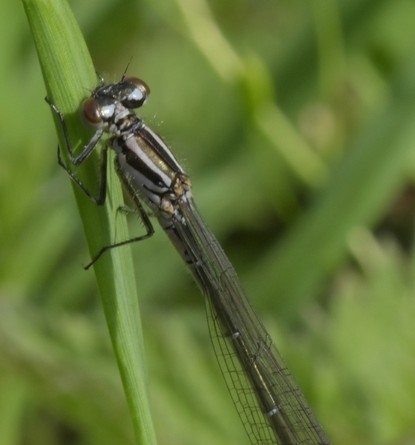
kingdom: Animalia
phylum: Arthropoda
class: Insecta
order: Odonata
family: Coenagrionidae
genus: Coenagrion
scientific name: Coenagrion puella
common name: Azure damselfly
